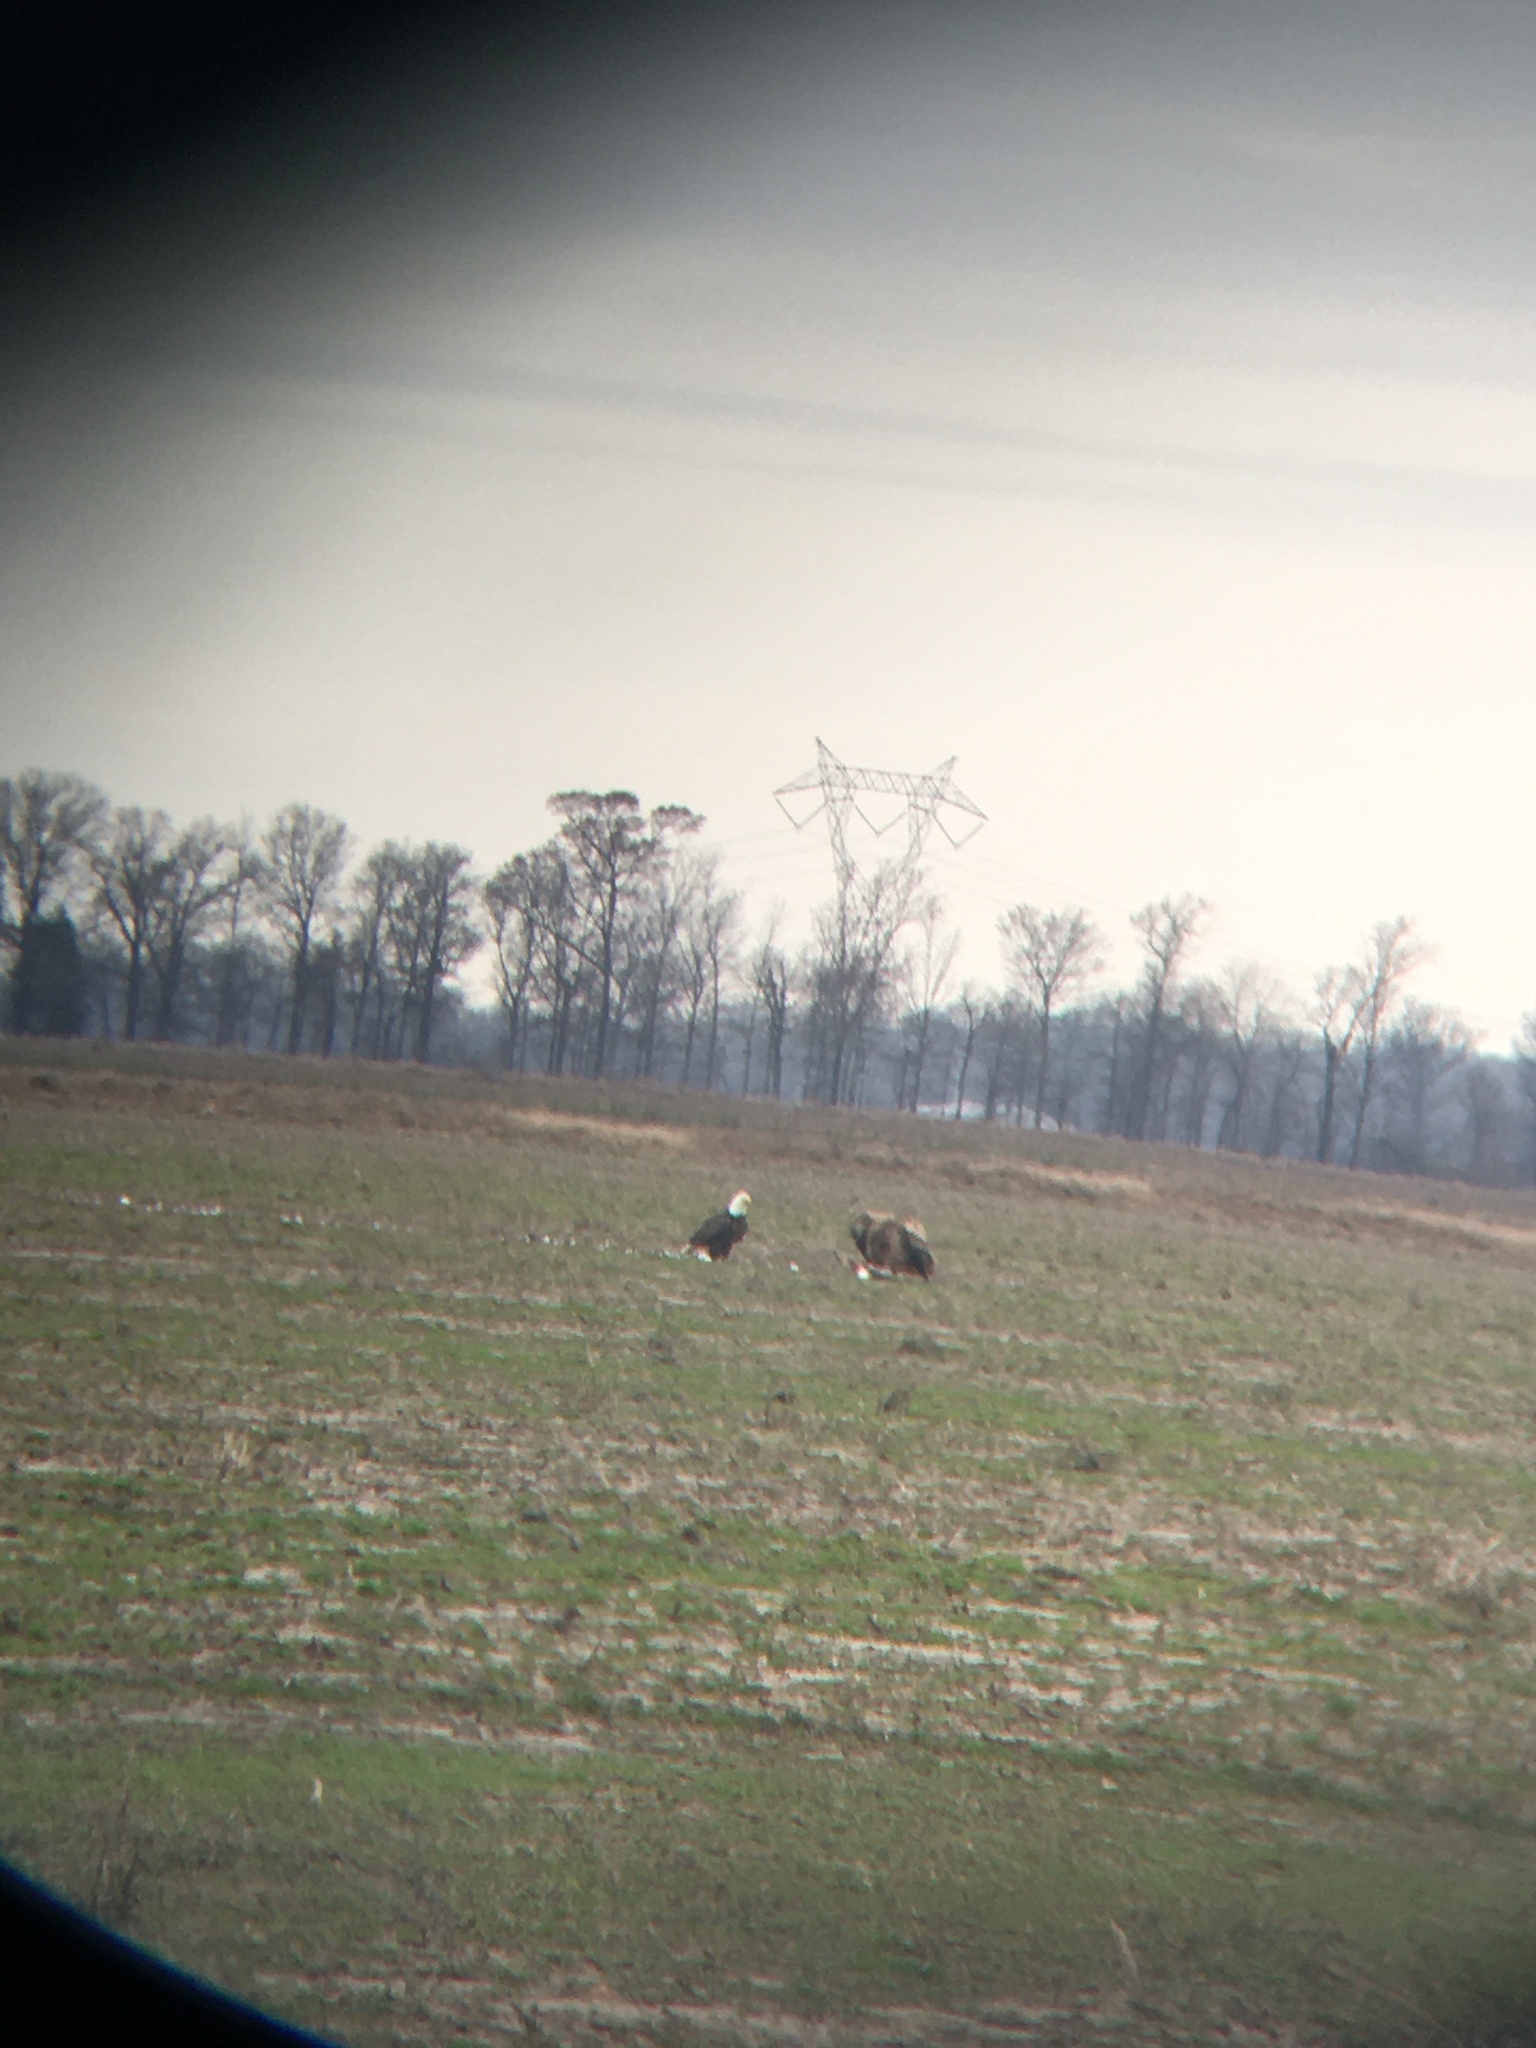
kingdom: Animalia
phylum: Chordata
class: Aves
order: Accipitriformes
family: Accipitridae
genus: Haliaeetus
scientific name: Haliaeetus leucocephalus
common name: Bald eagle
